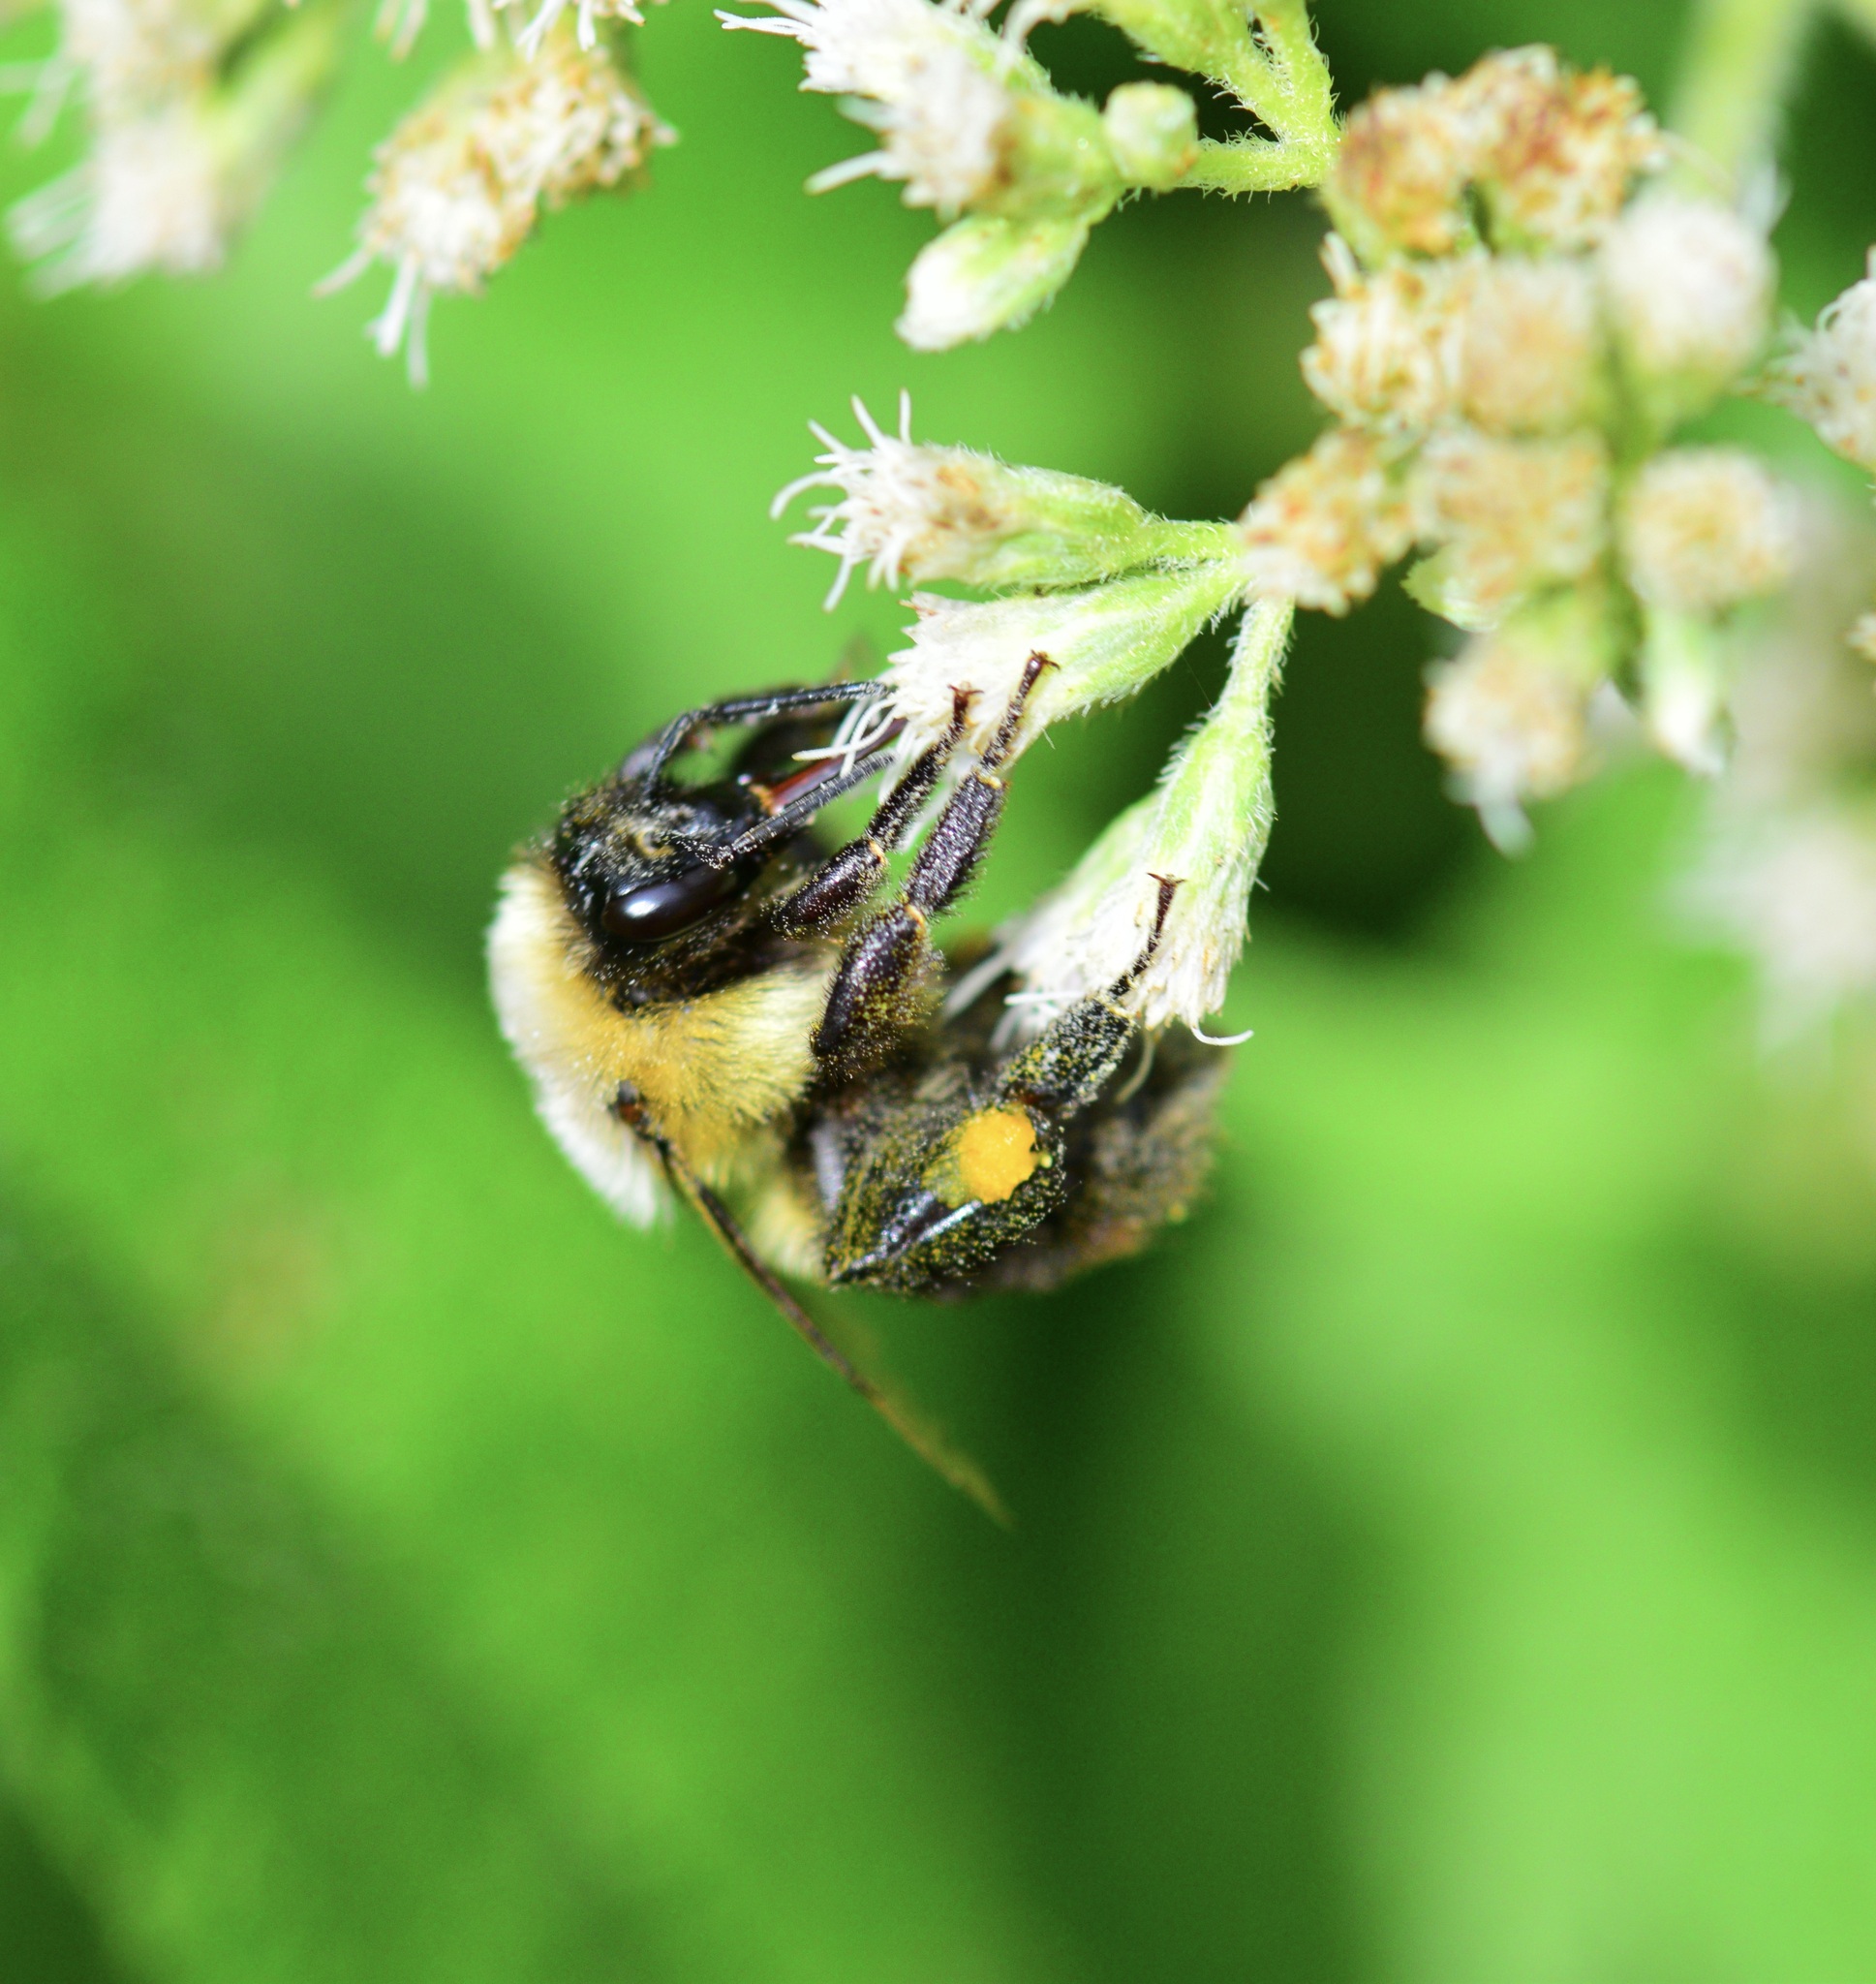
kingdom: Animalia
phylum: Arthropoda
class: Insecta
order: Hymenoptera
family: Apidae
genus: Bombus
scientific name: Bombus impatiens
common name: Common eastern bumble bee
